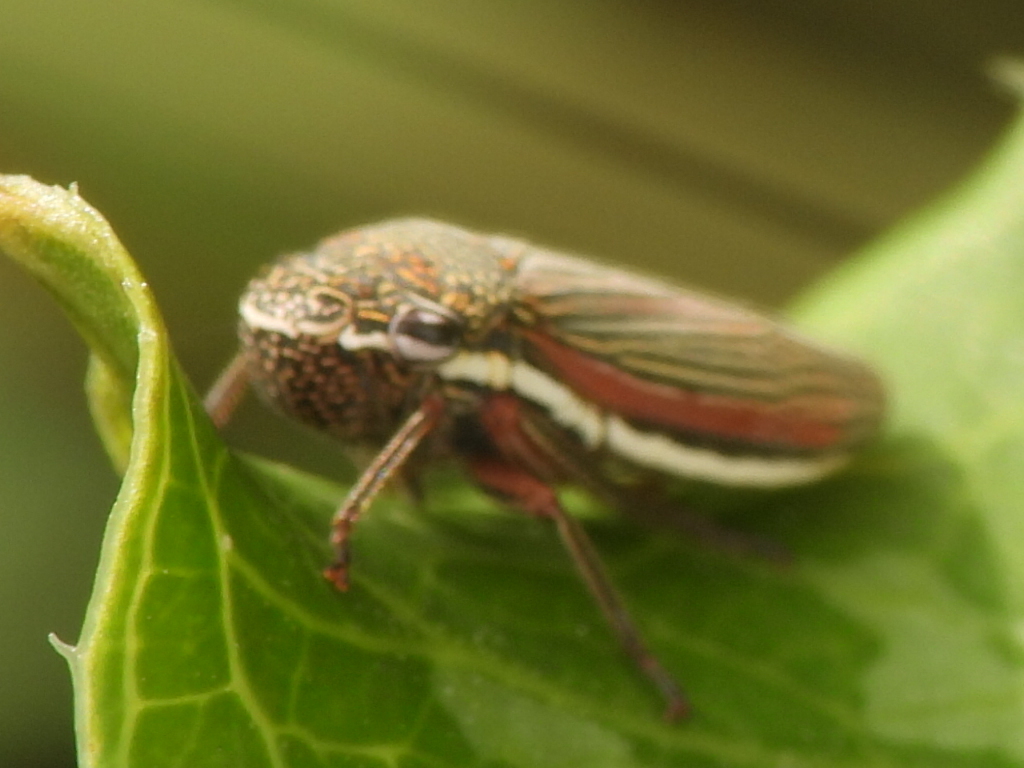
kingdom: Animalia
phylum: Arthropoda
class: Insecta
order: Hemiptera
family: Cicadellidae
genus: Cuerna
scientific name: Cuerna costalis
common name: Lateral-lined sharpshooter
